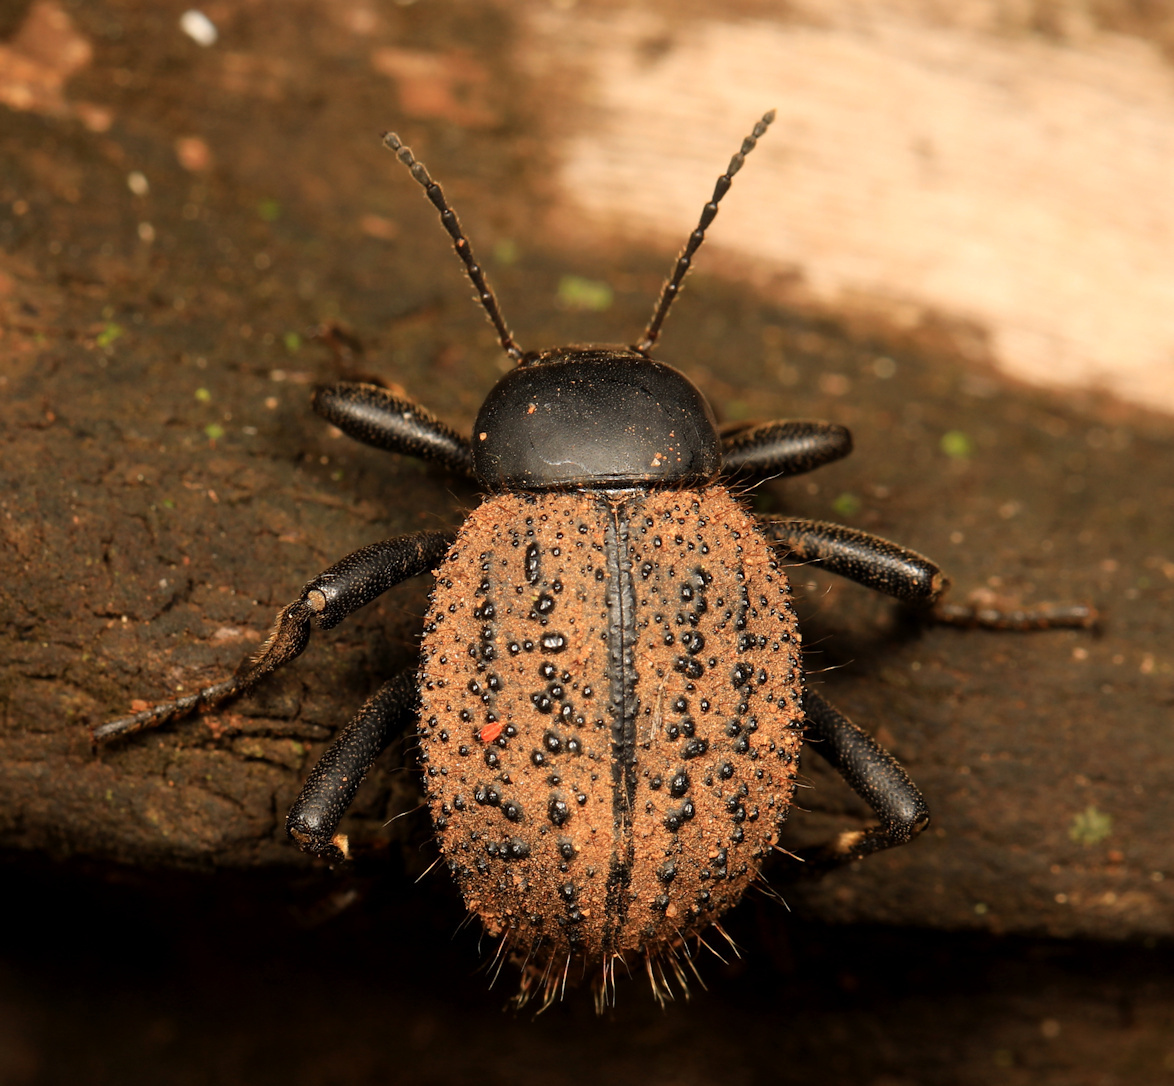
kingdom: Animalia
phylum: Arthropoda
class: Insecta
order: Coleoptera
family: Tenebrionidae
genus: Micrantereus
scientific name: Micrantereus
